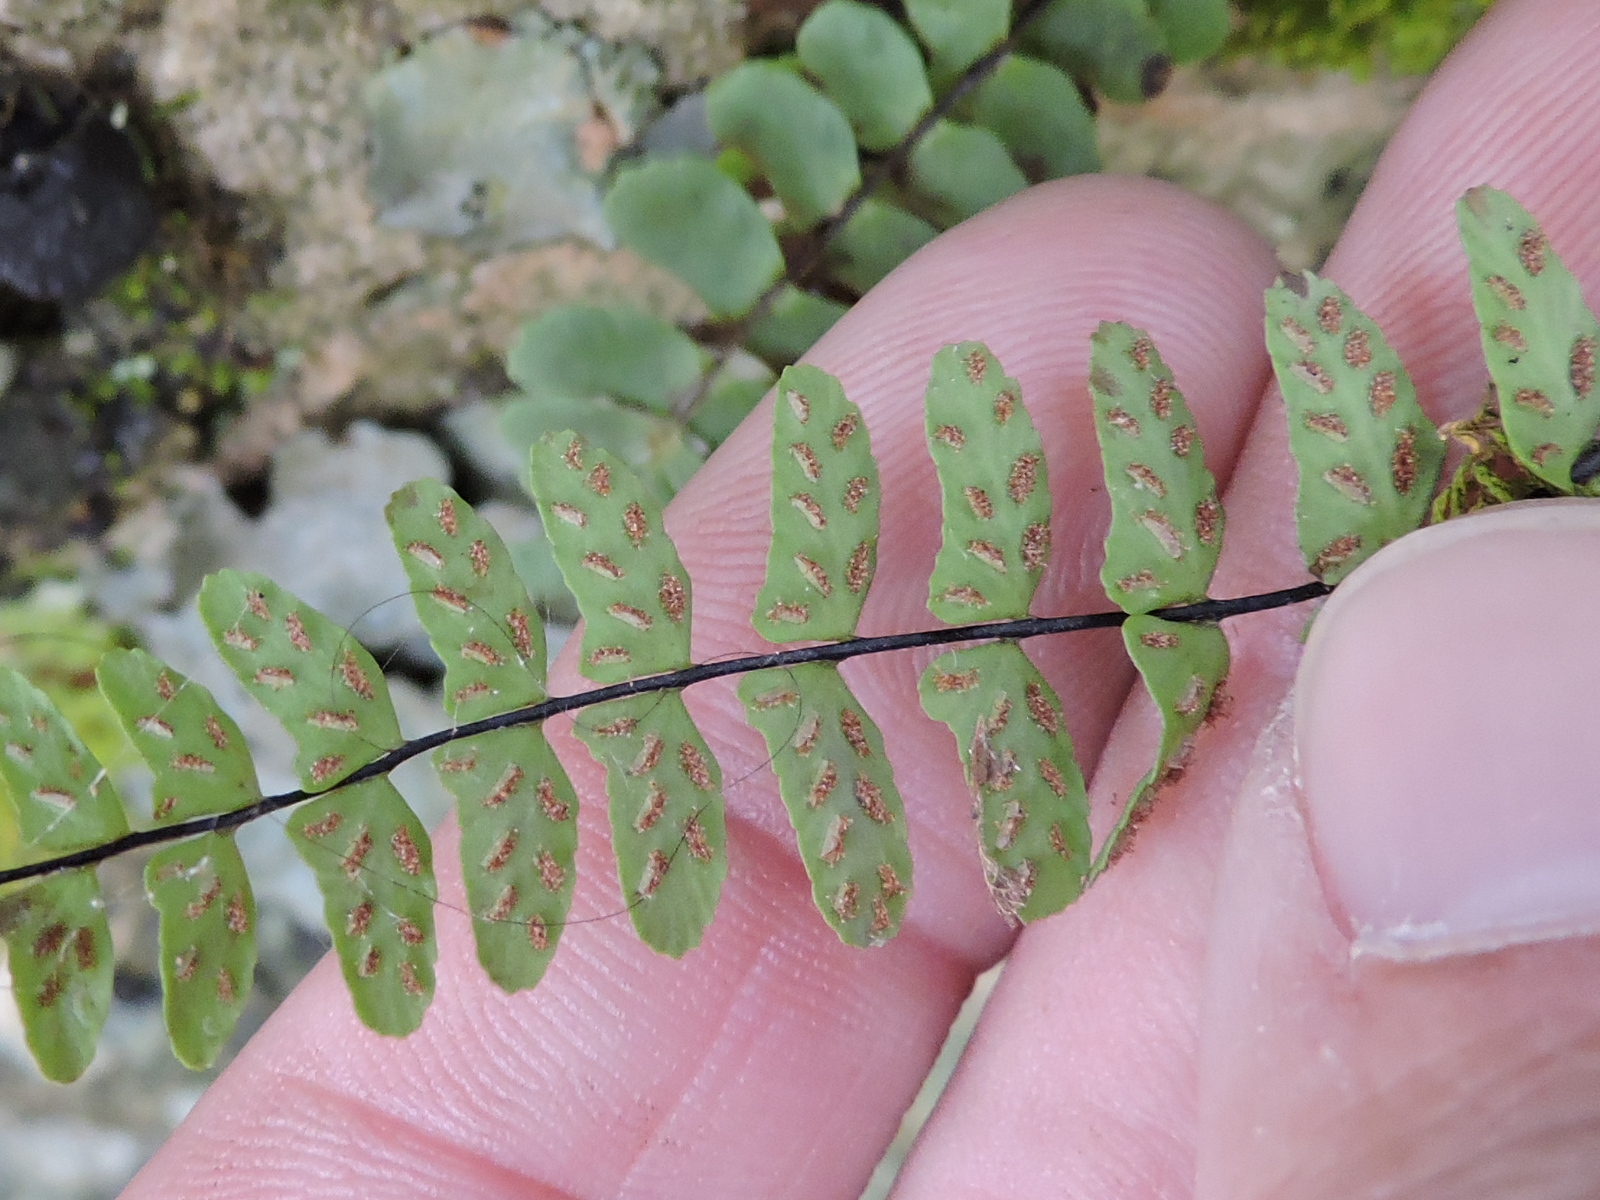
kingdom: Plantae
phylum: Tracheophyta
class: Polypodiopsida
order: Polypodiales
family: Aspleniaceae
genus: Asplenium
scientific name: Asplenium resiliens
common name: Blackstem spleenwort
